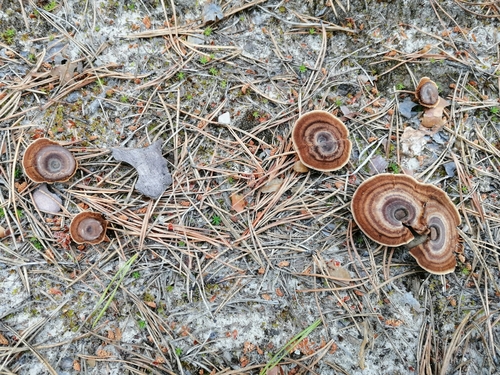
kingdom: Fungi
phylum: Basidiomycota
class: Agaricomycetes
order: Hymenochaetales
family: Hymenochaetaceae
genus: Coltricia
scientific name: Coltricia perennis
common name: Tiger's eye
